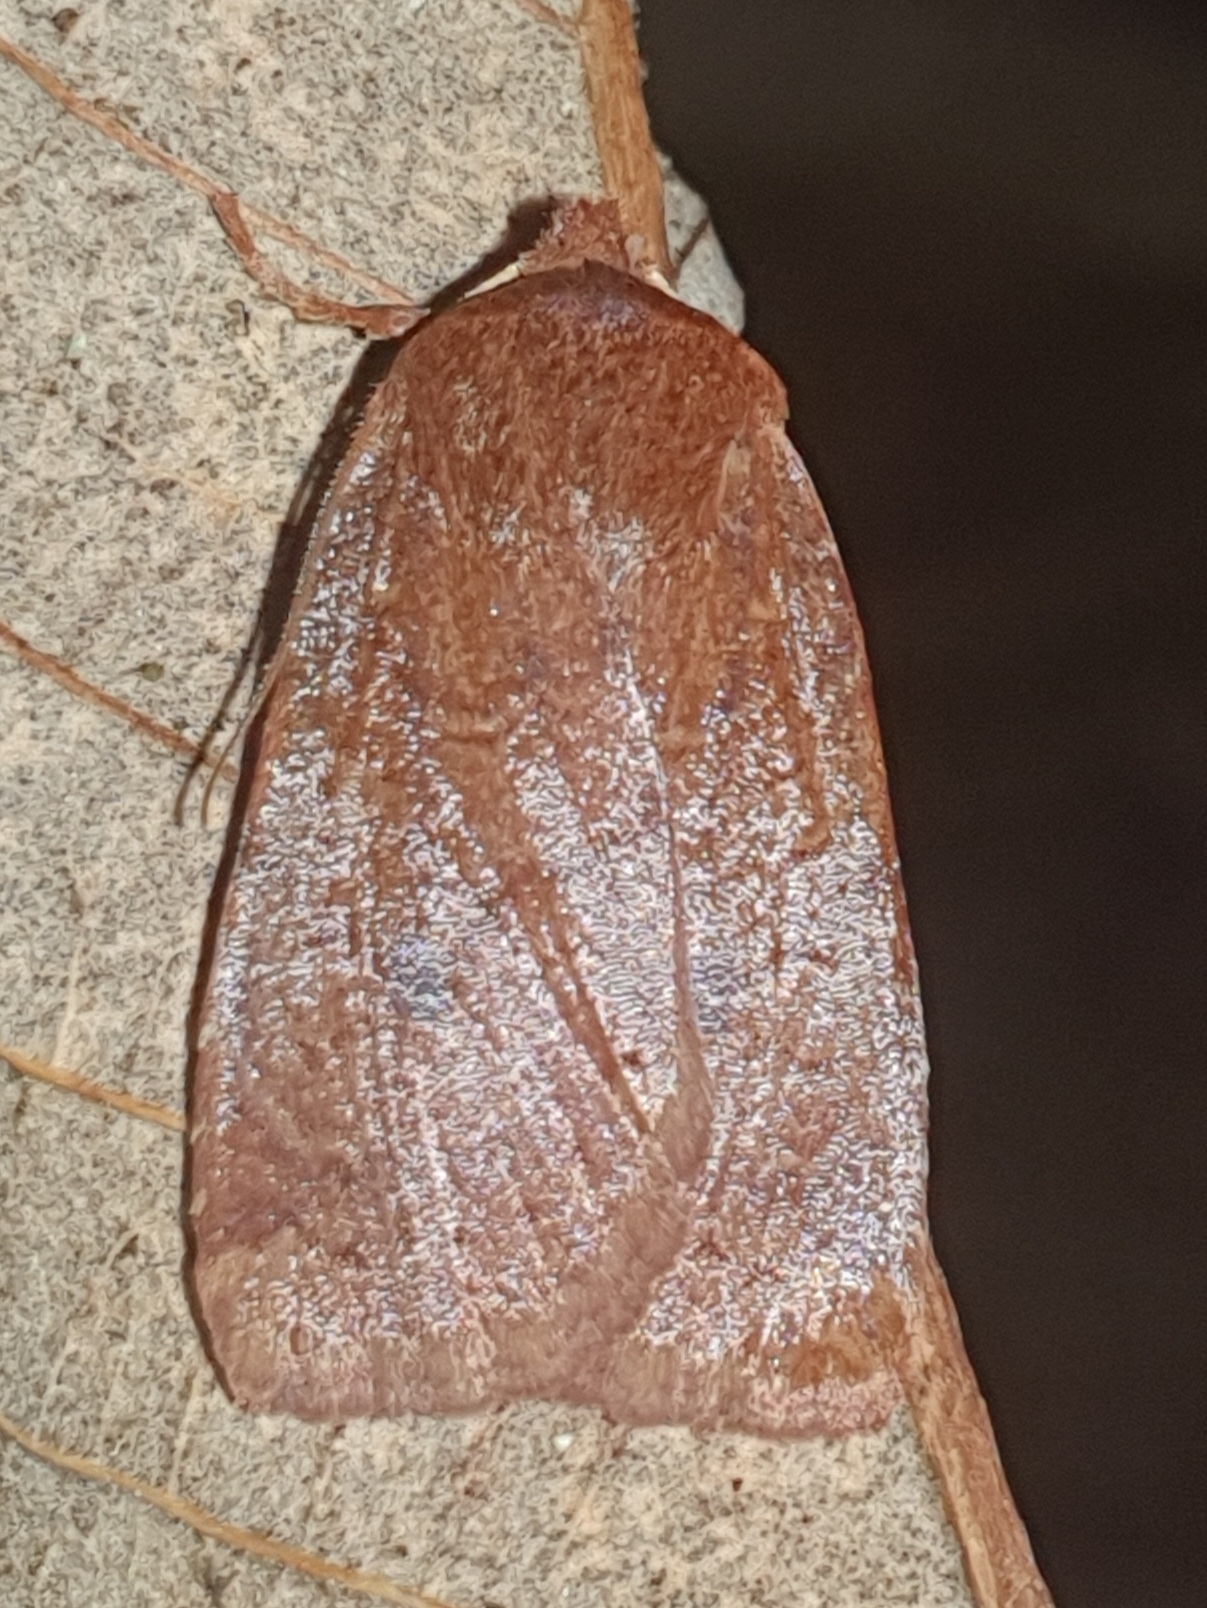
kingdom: Animalia
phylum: Arthropoda
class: Insecta
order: Lepidoptera
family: Noctuidae
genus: Conistra
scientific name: Conistra vaccinii
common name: Chestnut
